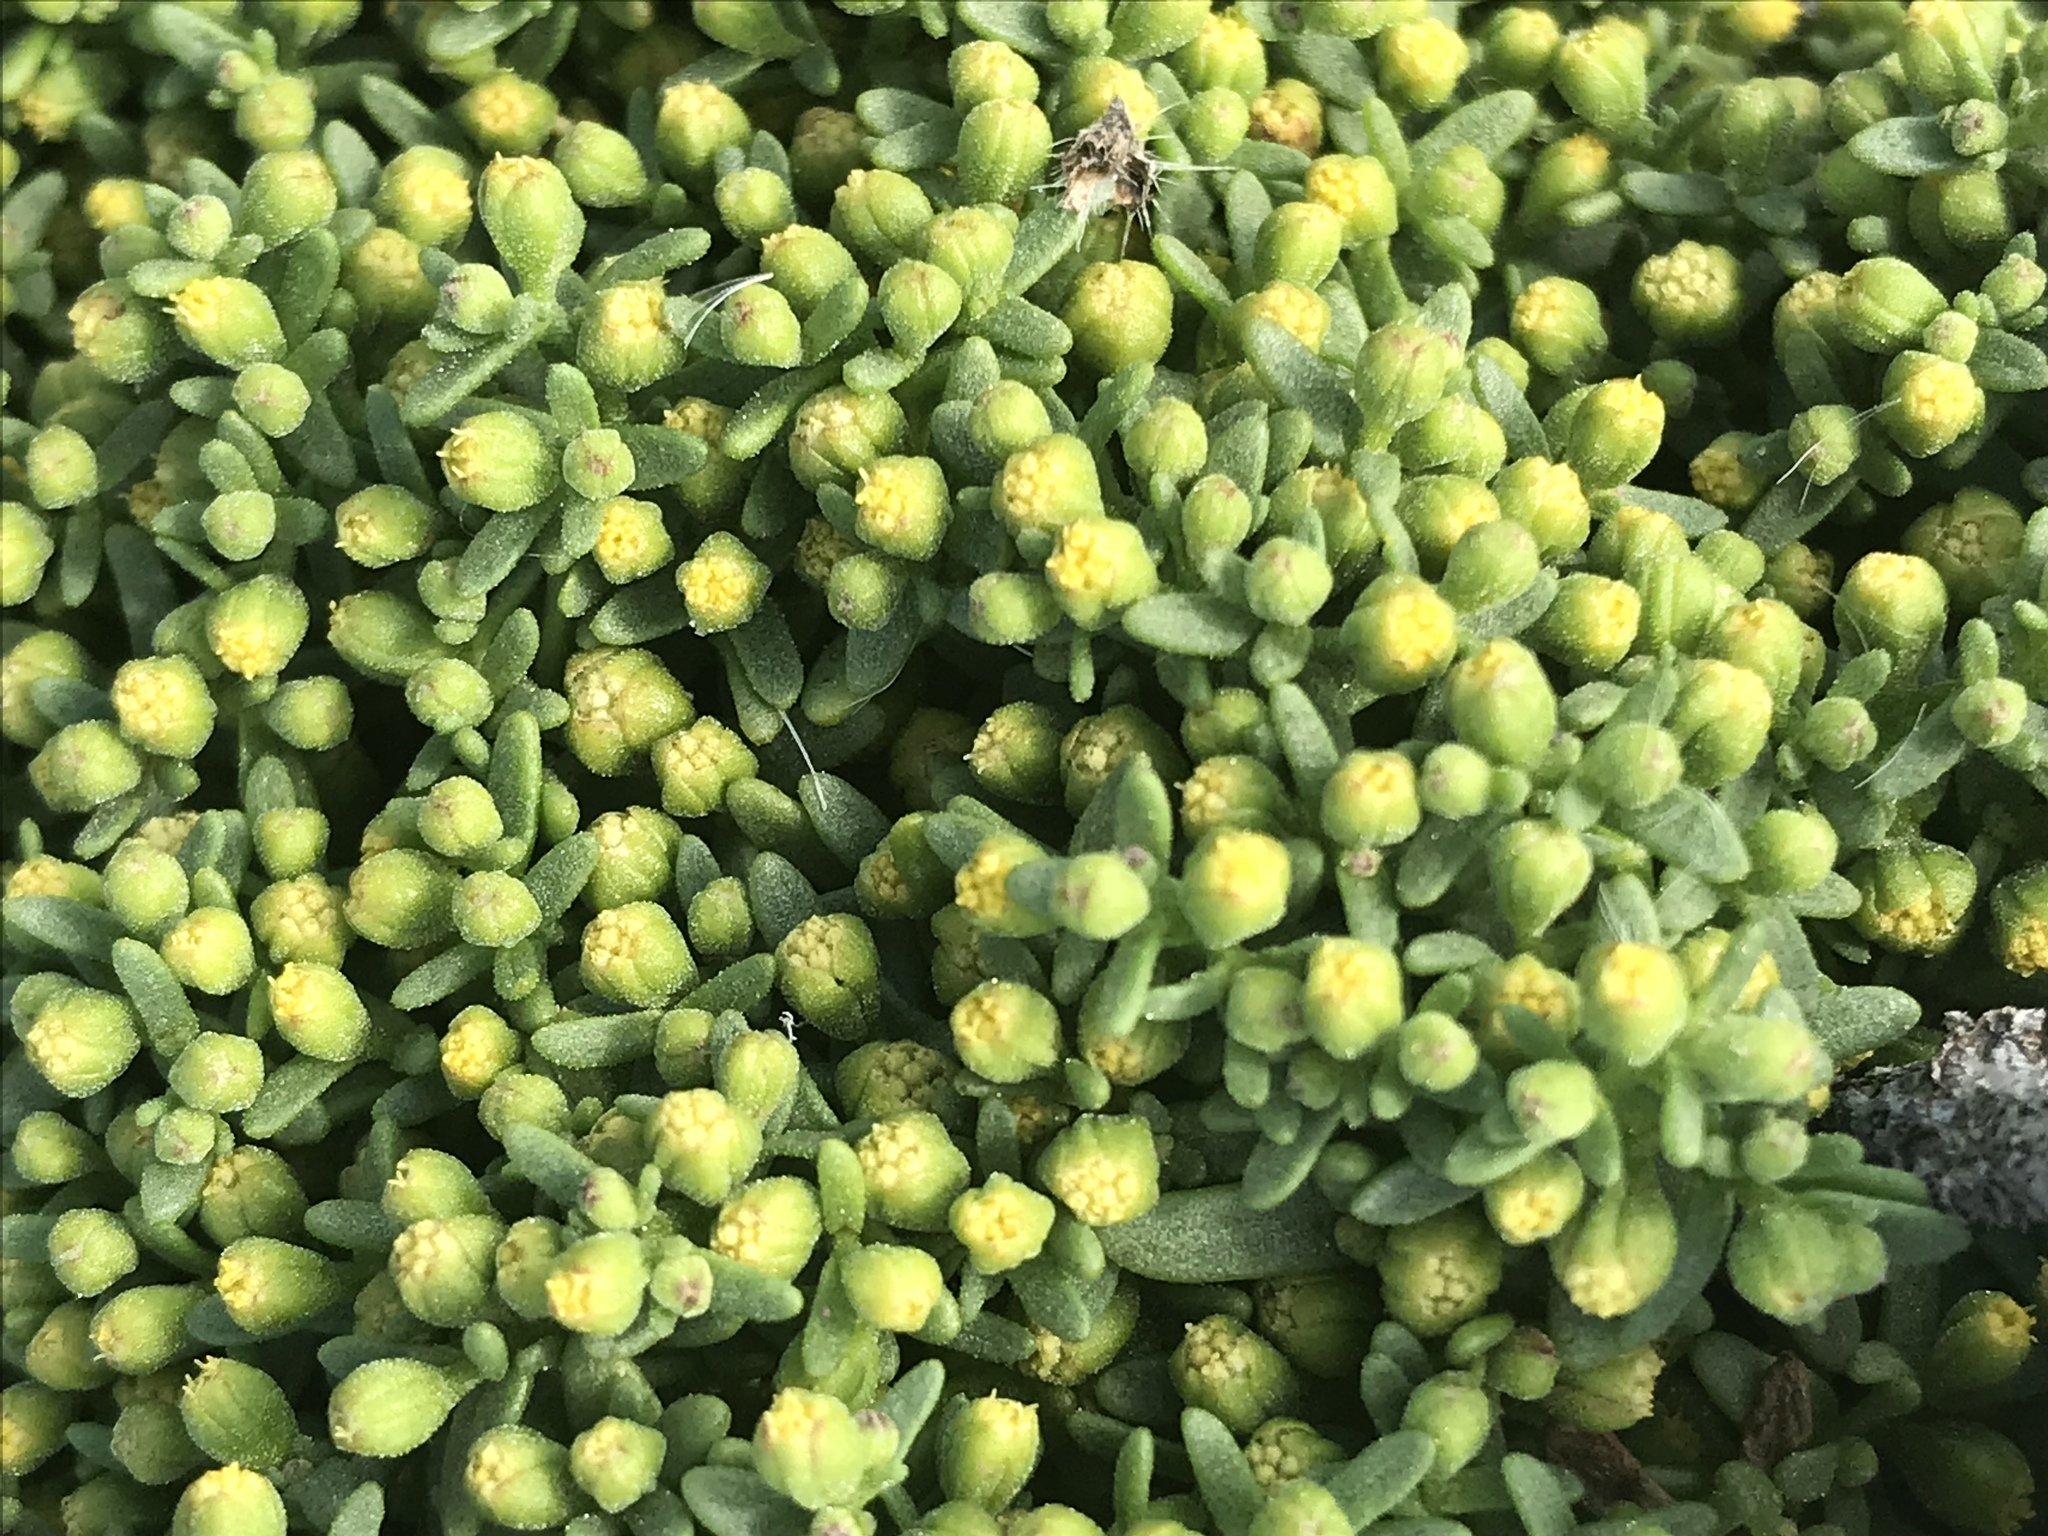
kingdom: Plantae
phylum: Tracheophyta
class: Magnoliopsida
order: Asterales
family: Asteraceae
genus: Amblyopappus
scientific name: Amblyopappus pusillus
